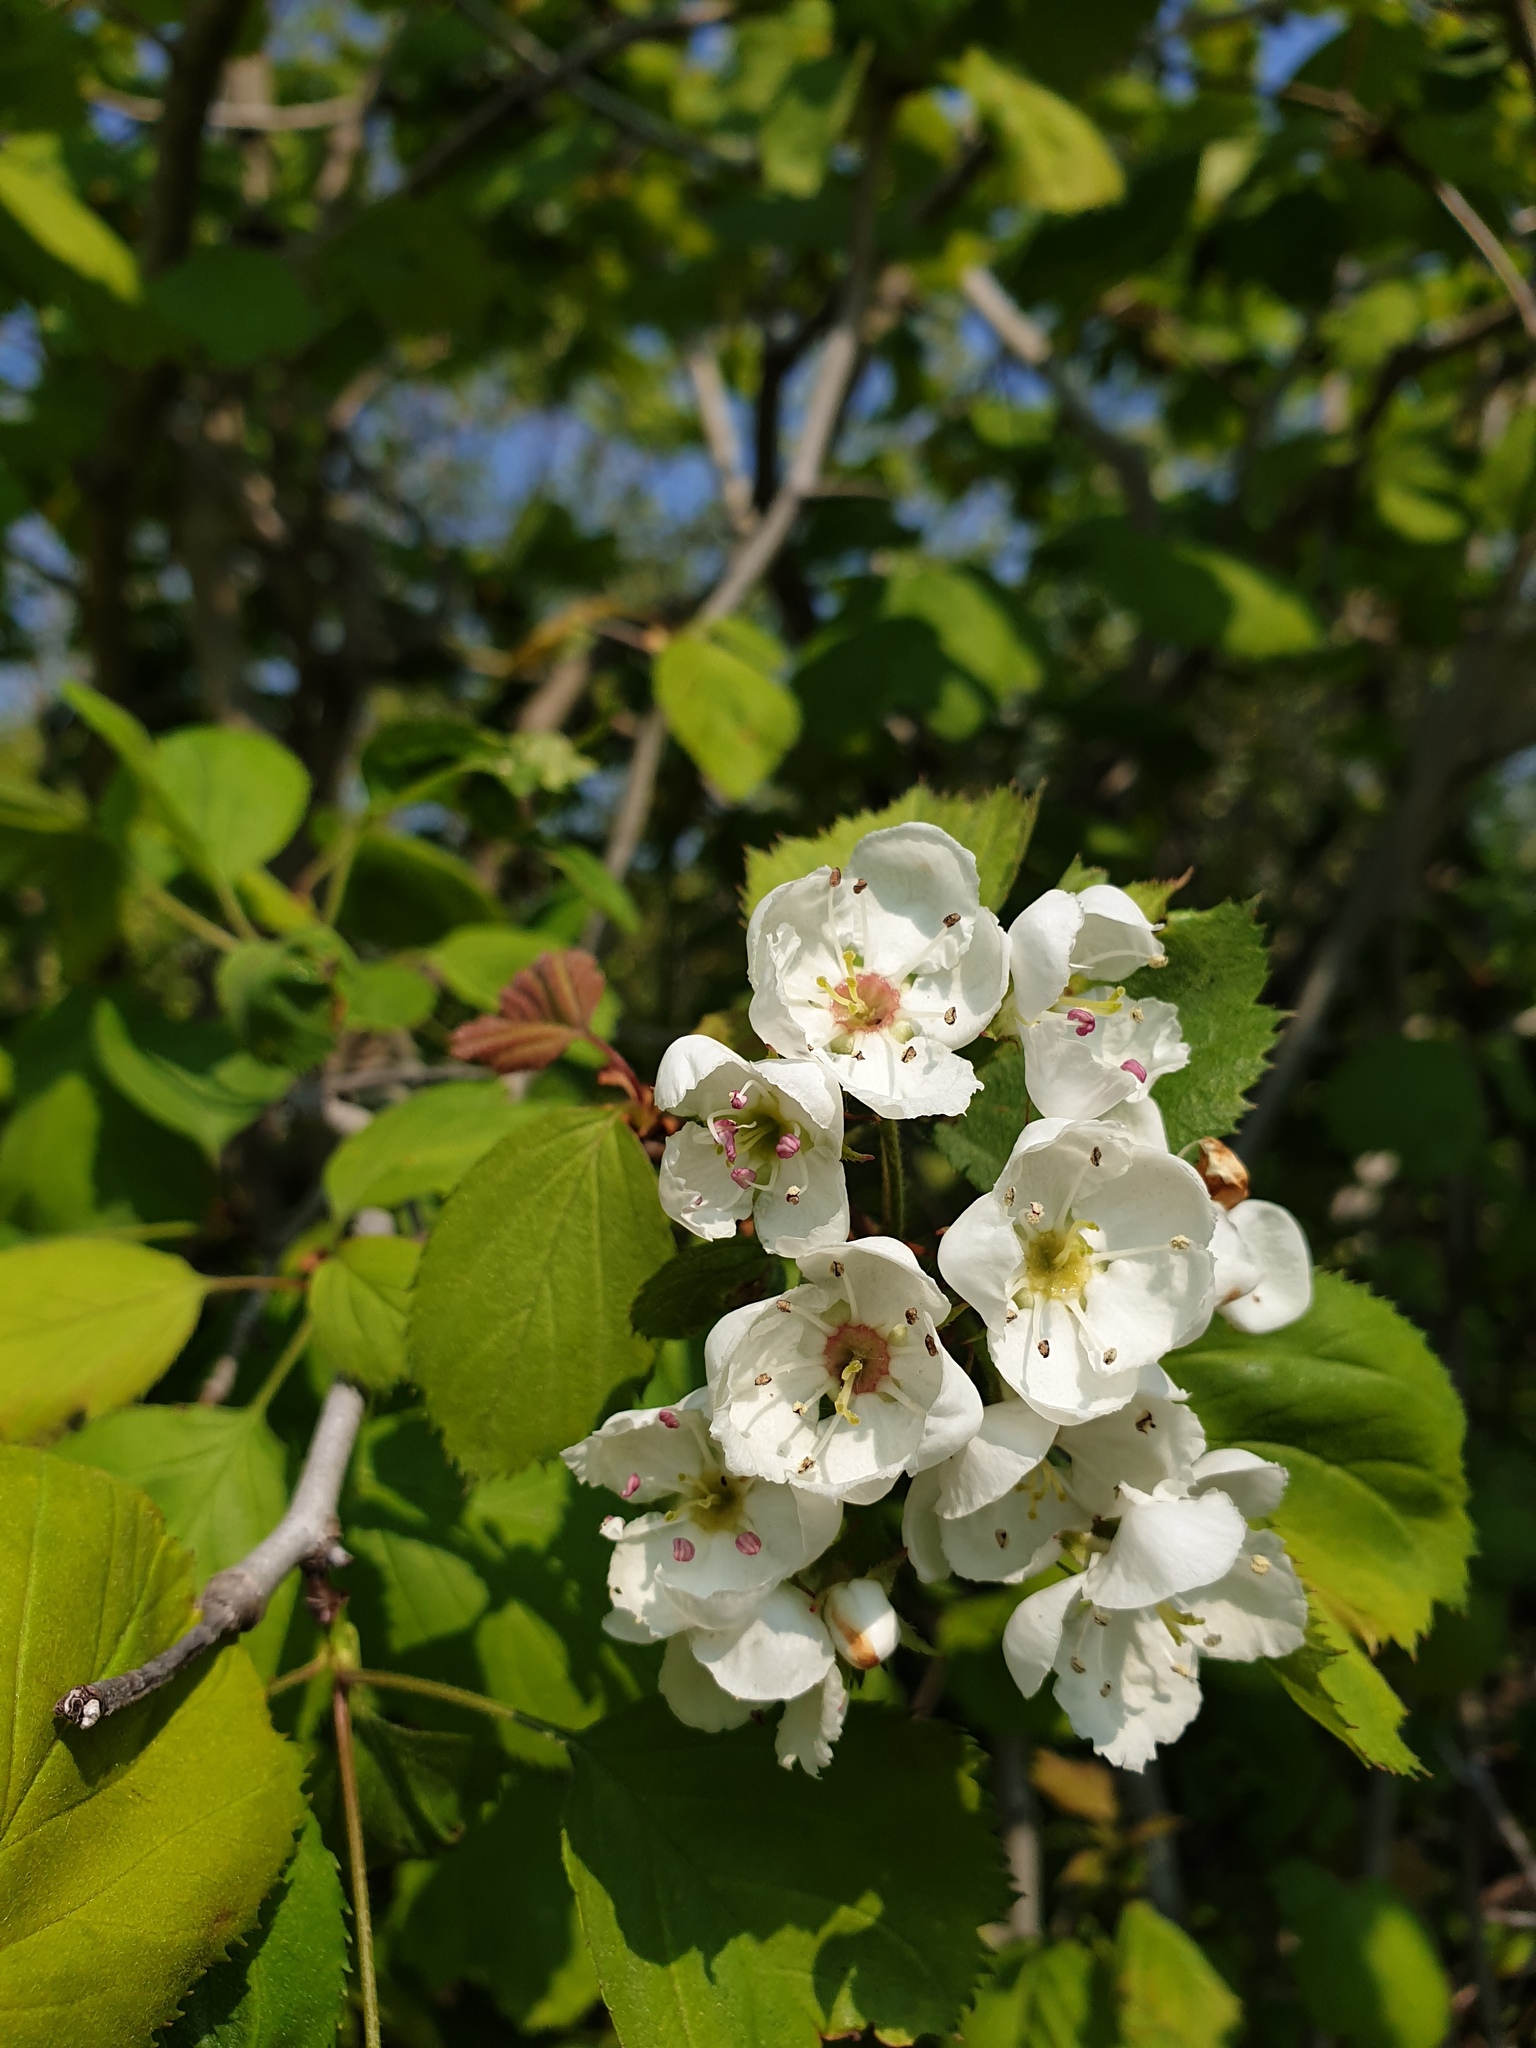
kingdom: Plantae
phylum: Tracheophyta
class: Magnoliopsida
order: Rosales
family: Rosaceae
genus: Crataegus
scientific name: Crataegus coccinea
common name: Scarlet hawthorn
